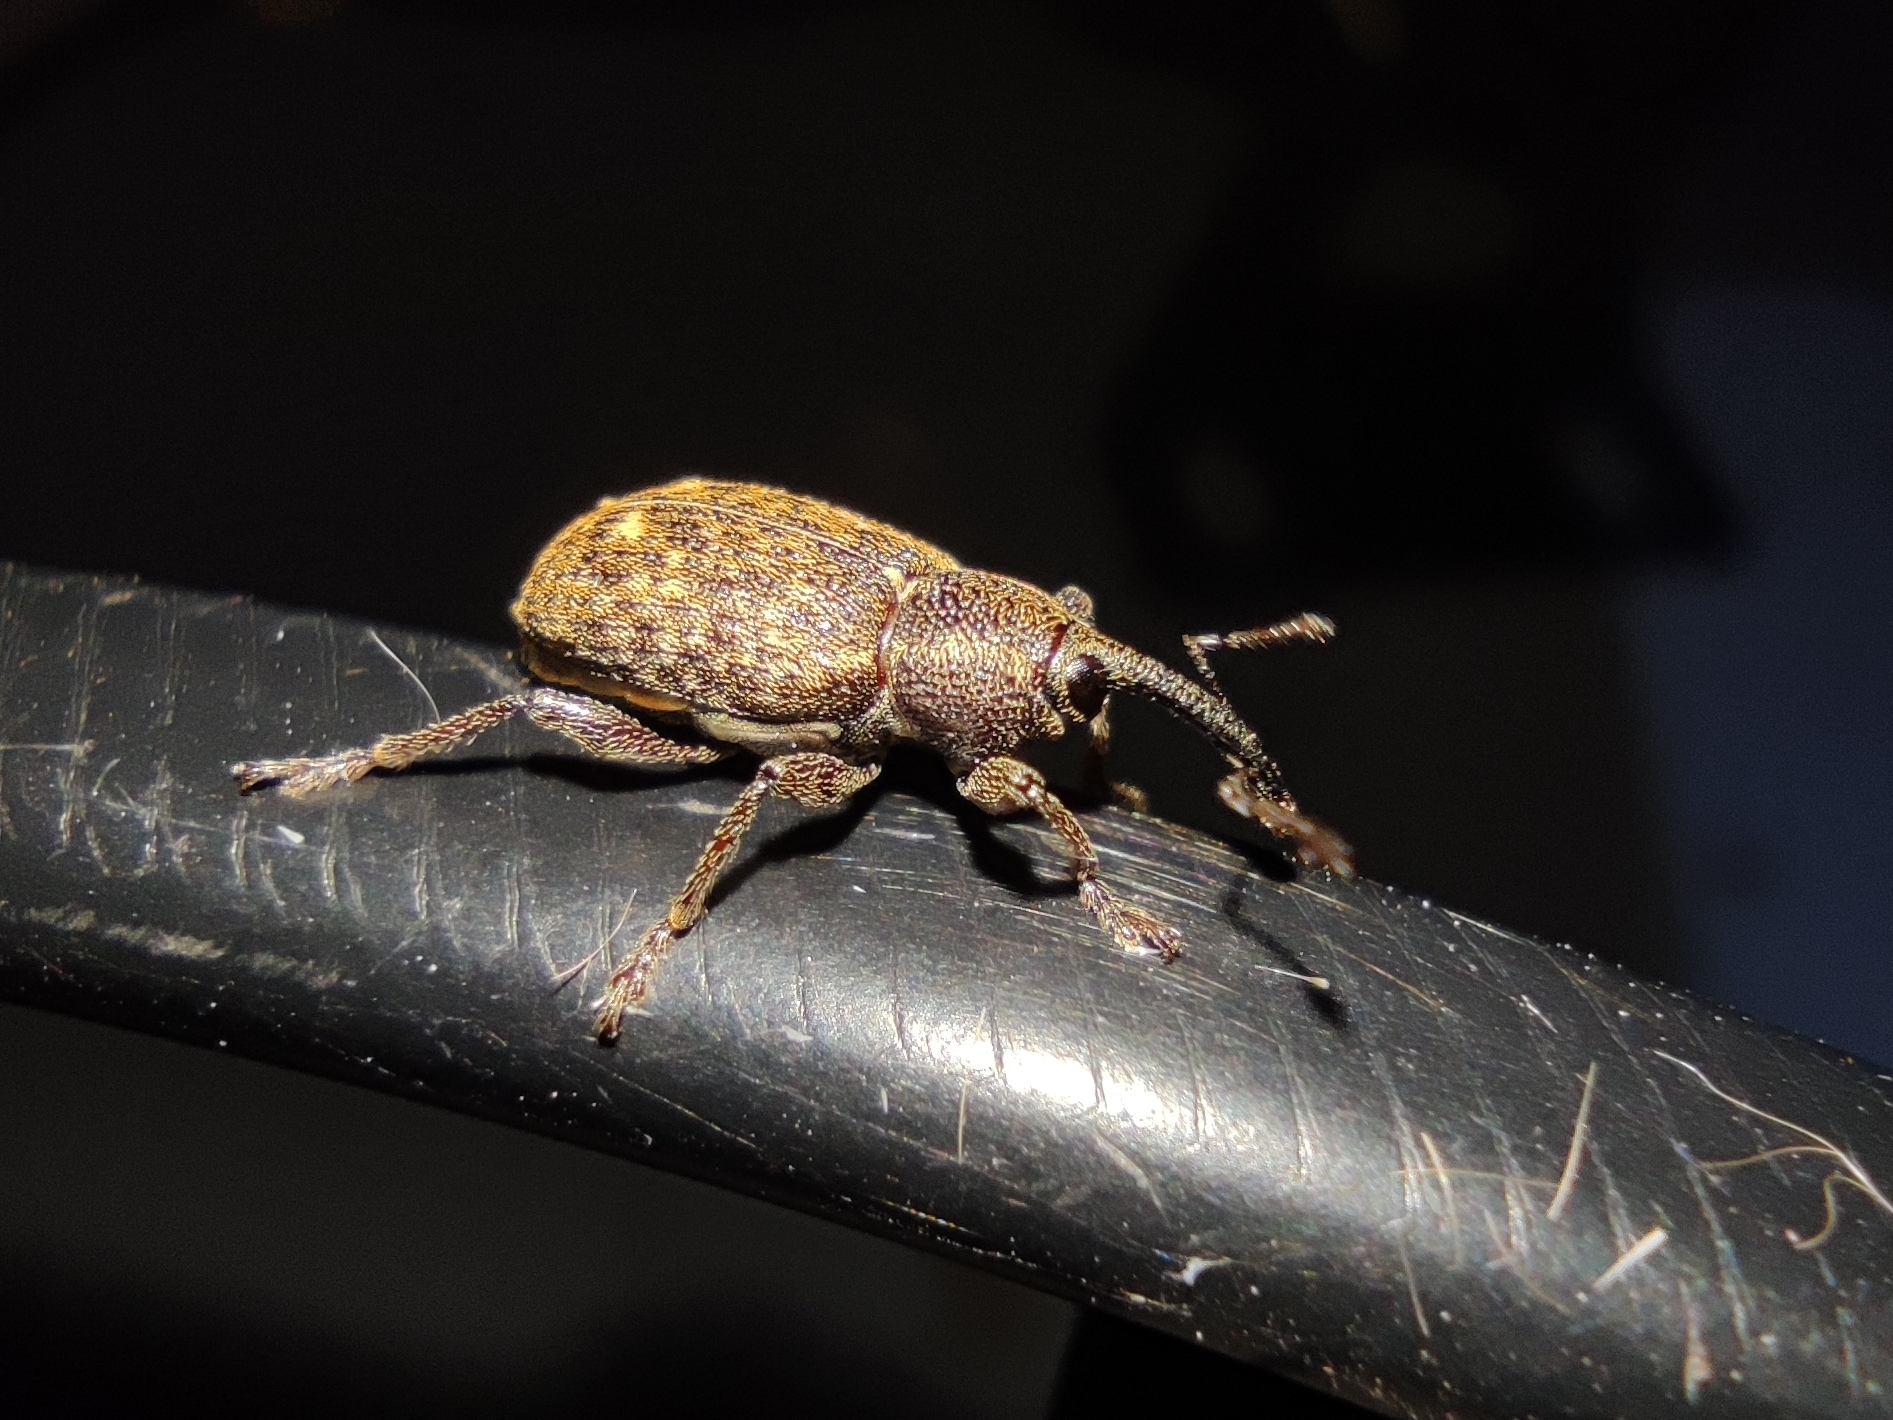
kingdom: Animalia
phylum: Arthropoda
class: Insecta
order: Coleoptera
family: Brachyceridae
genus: Notaris
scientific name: Notaris scirpi
